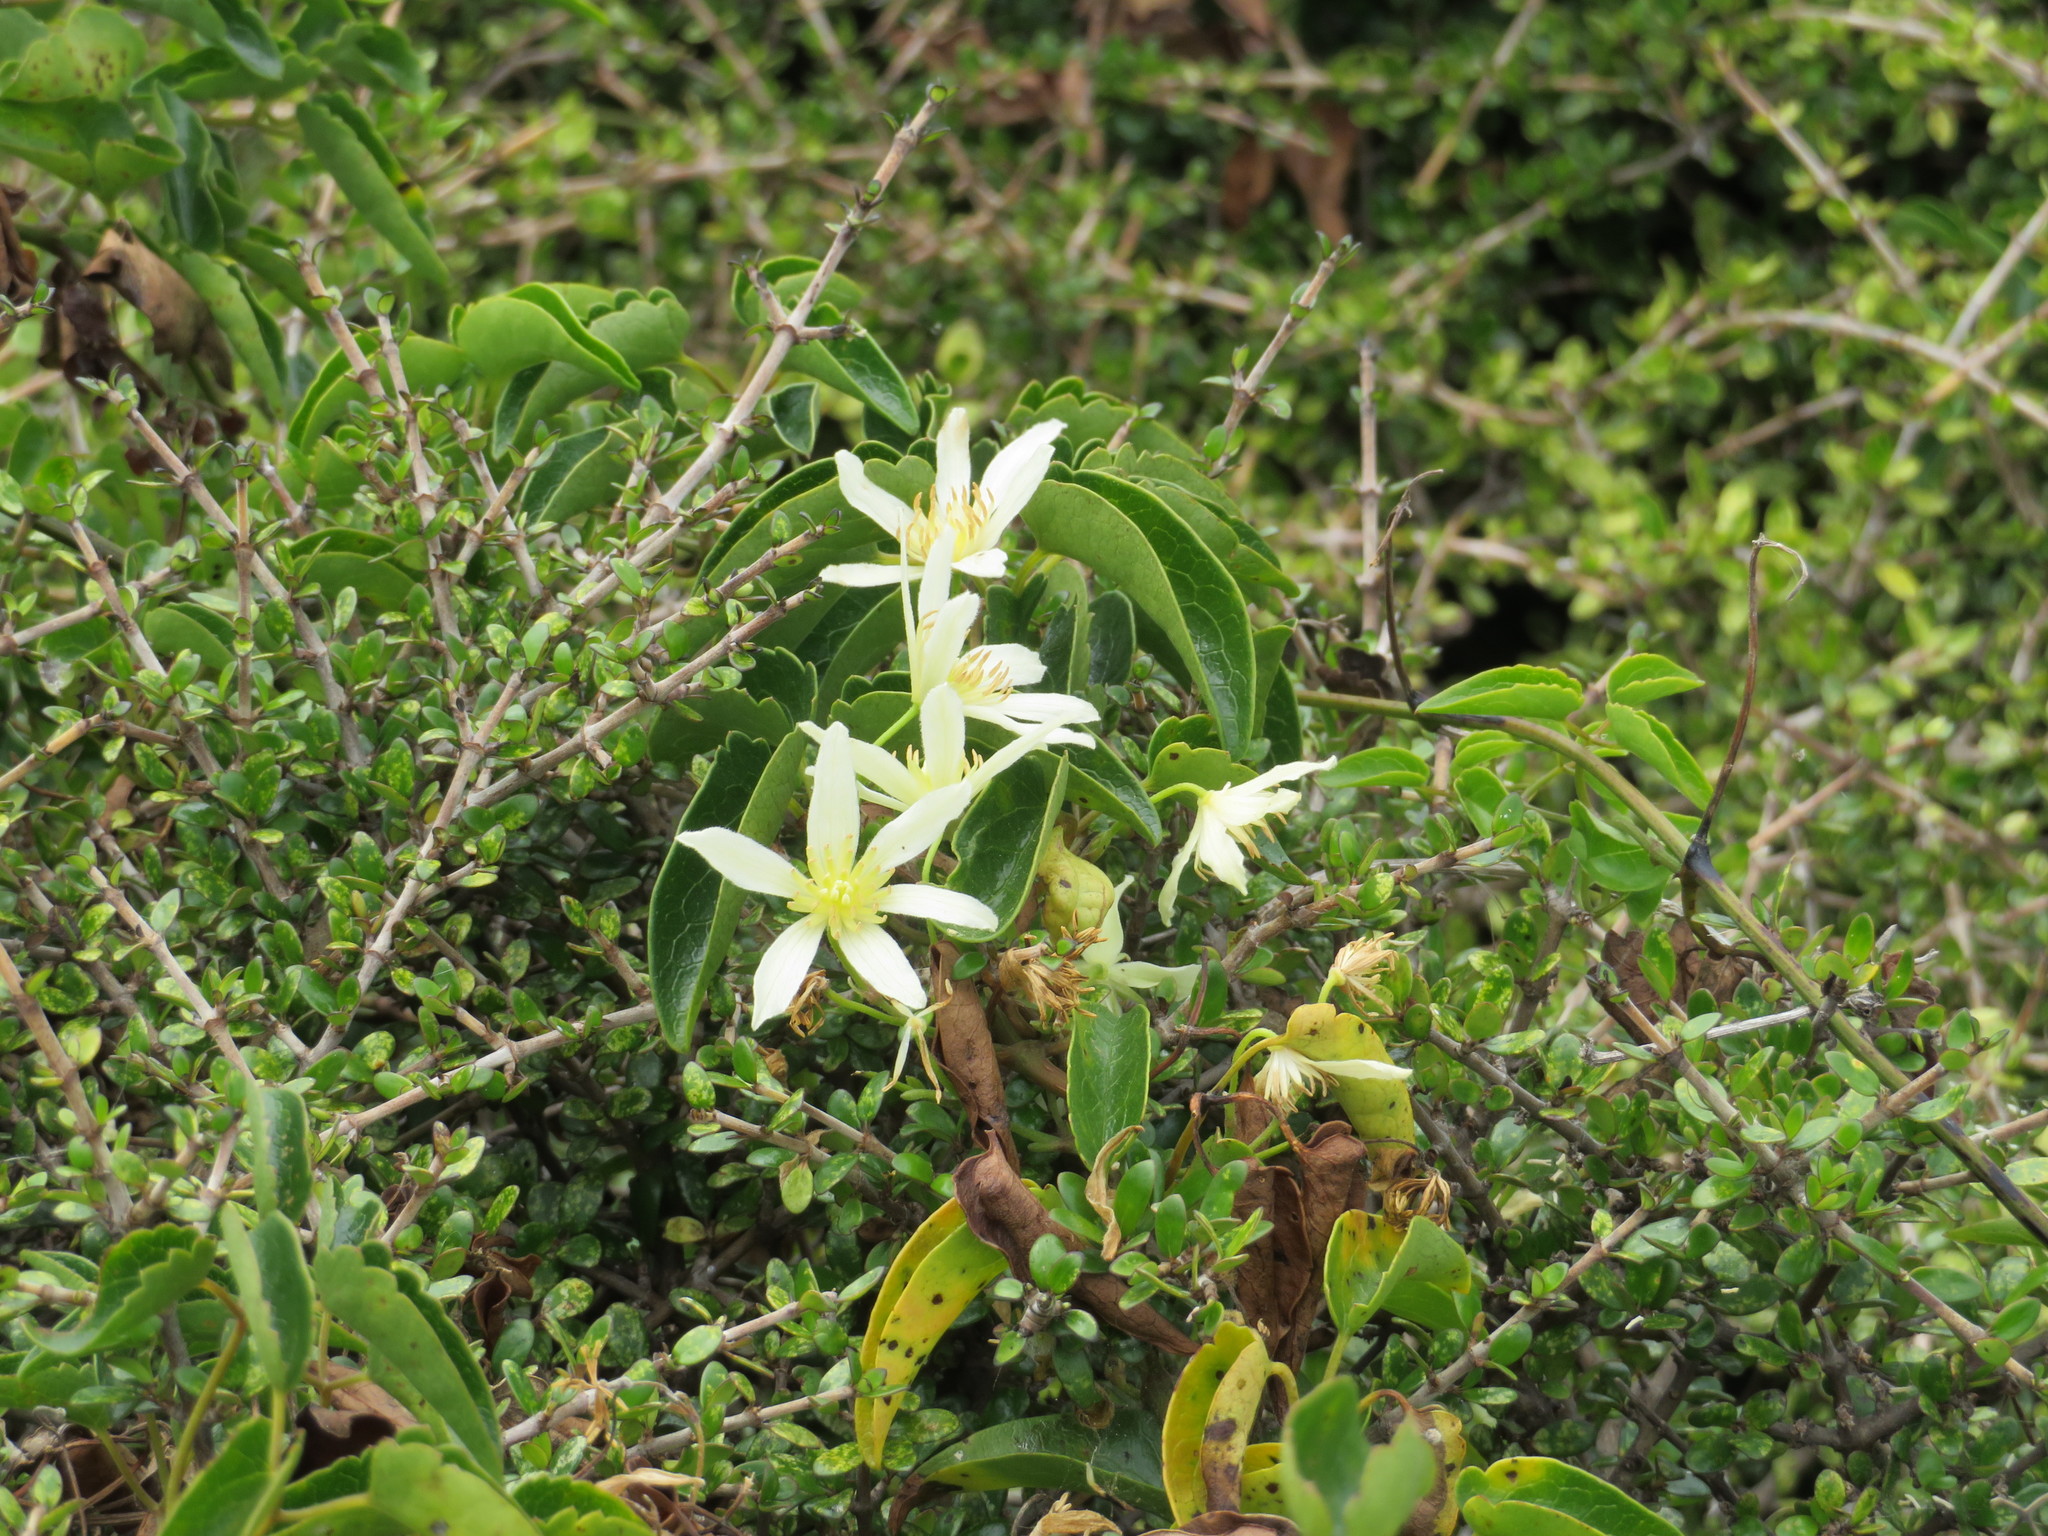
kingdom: Plantae
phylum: Tracheophyta
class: Magnoliopsida
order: Ranunculales
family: Ranunculaceae
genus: Clematis
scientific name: Clematis forsteri
